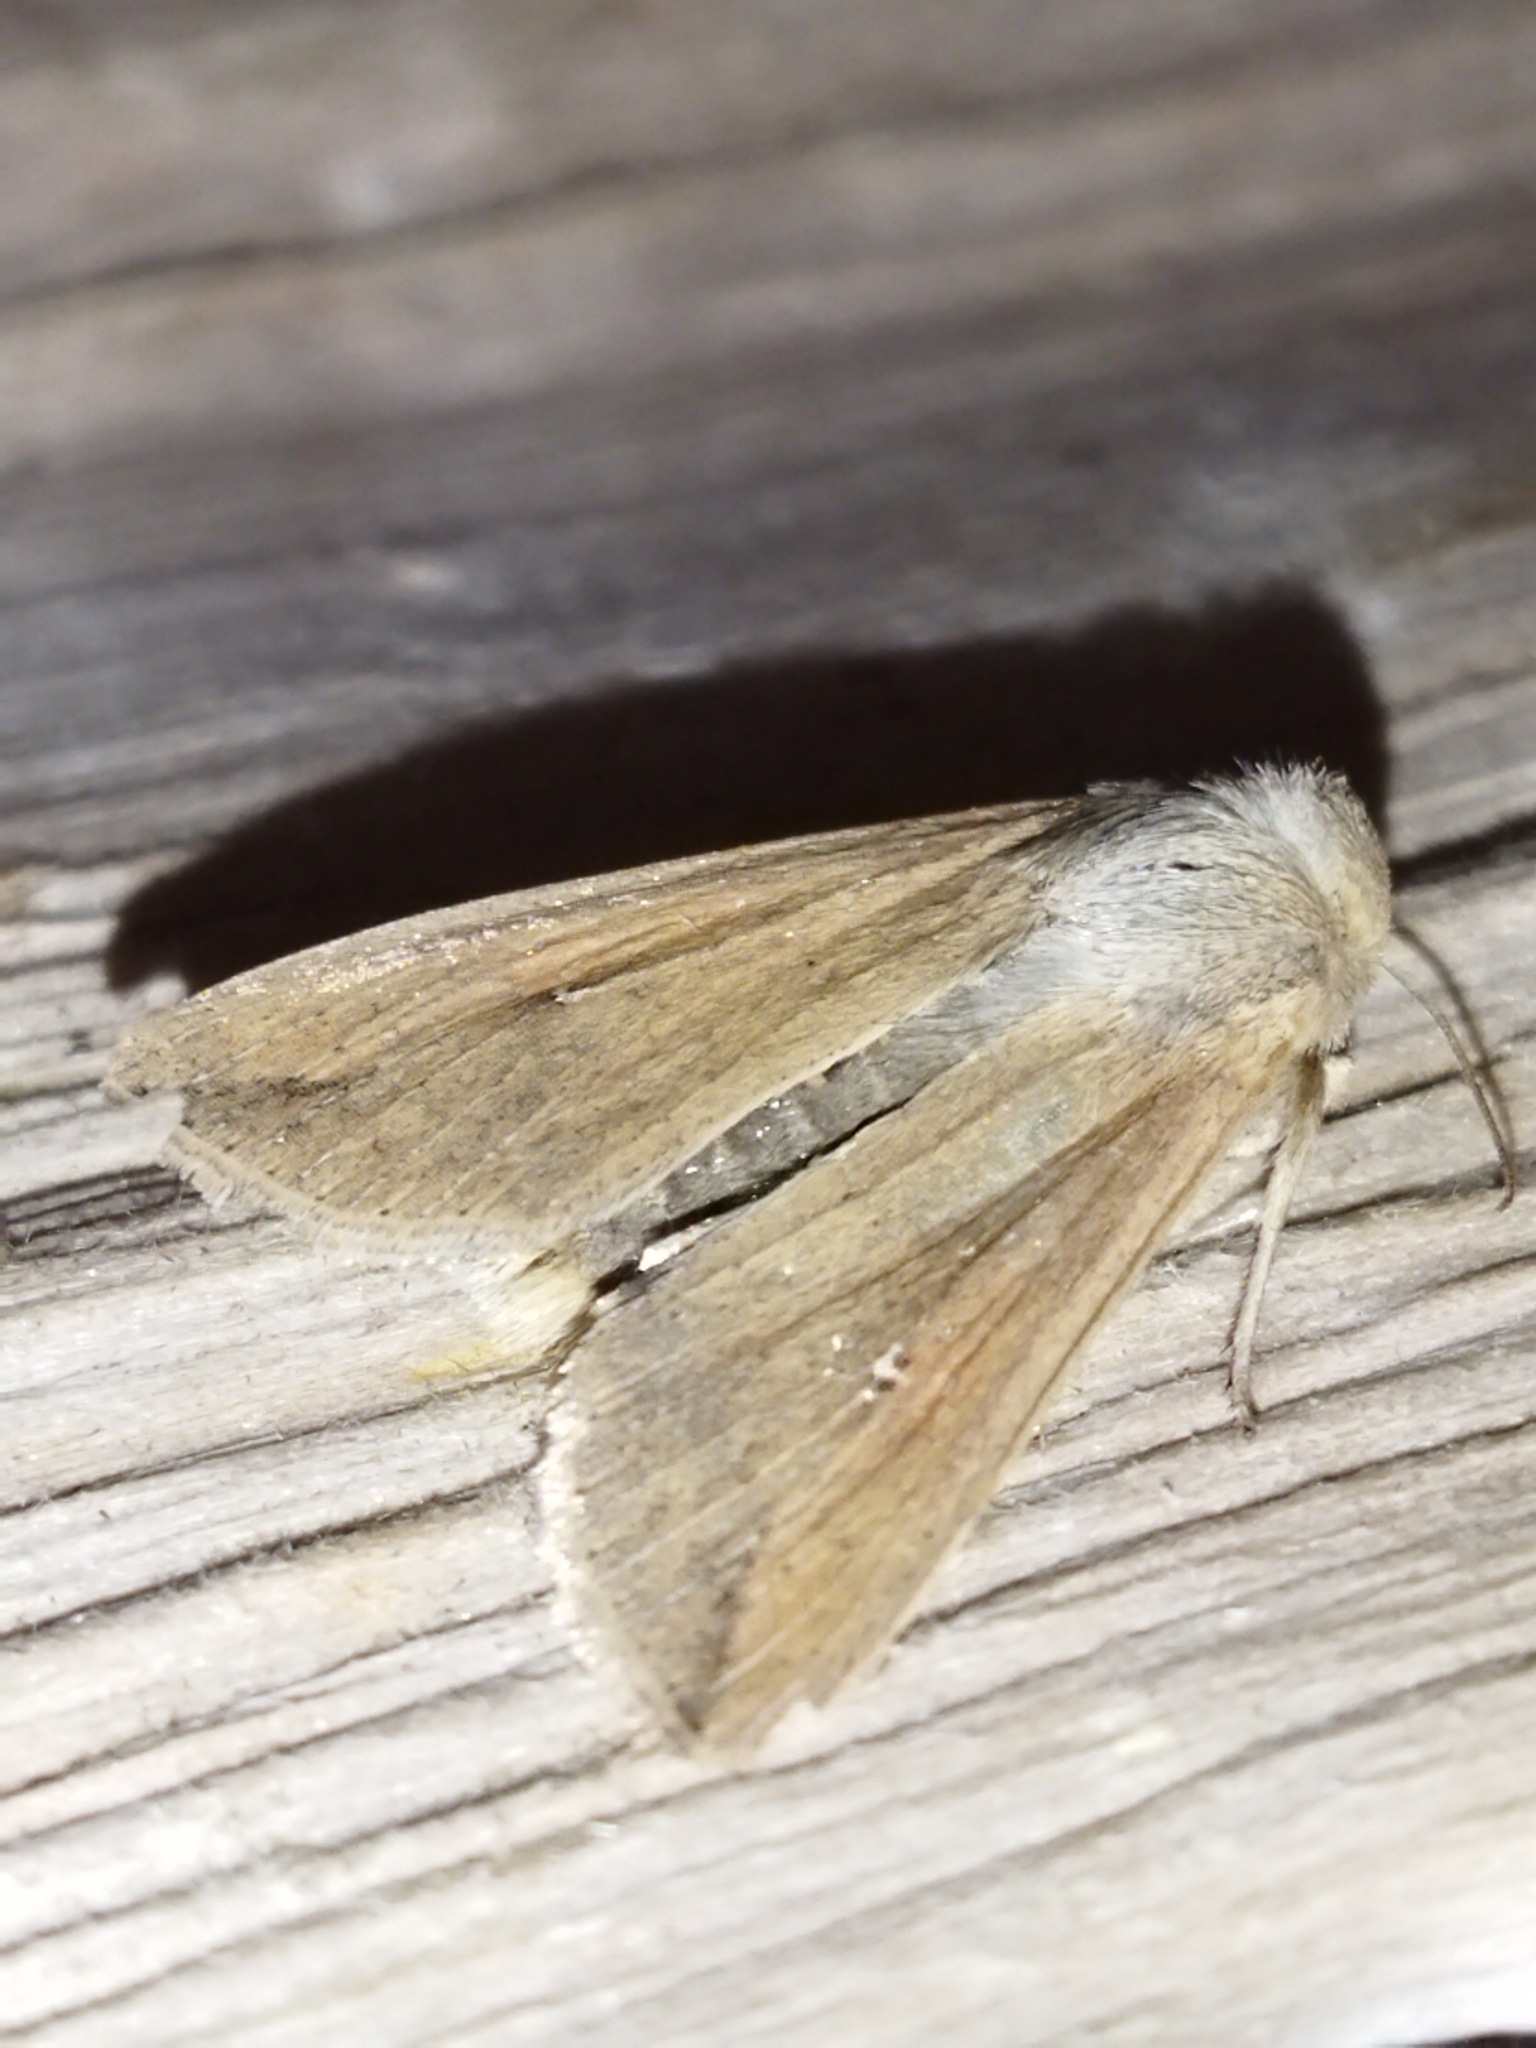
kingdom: Animalia
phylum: Arthropoda
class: Insecta
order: Lepidoptera
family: Noctuidae
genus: Mythimna
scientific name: Mythimna unipuncta
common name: White-speck
